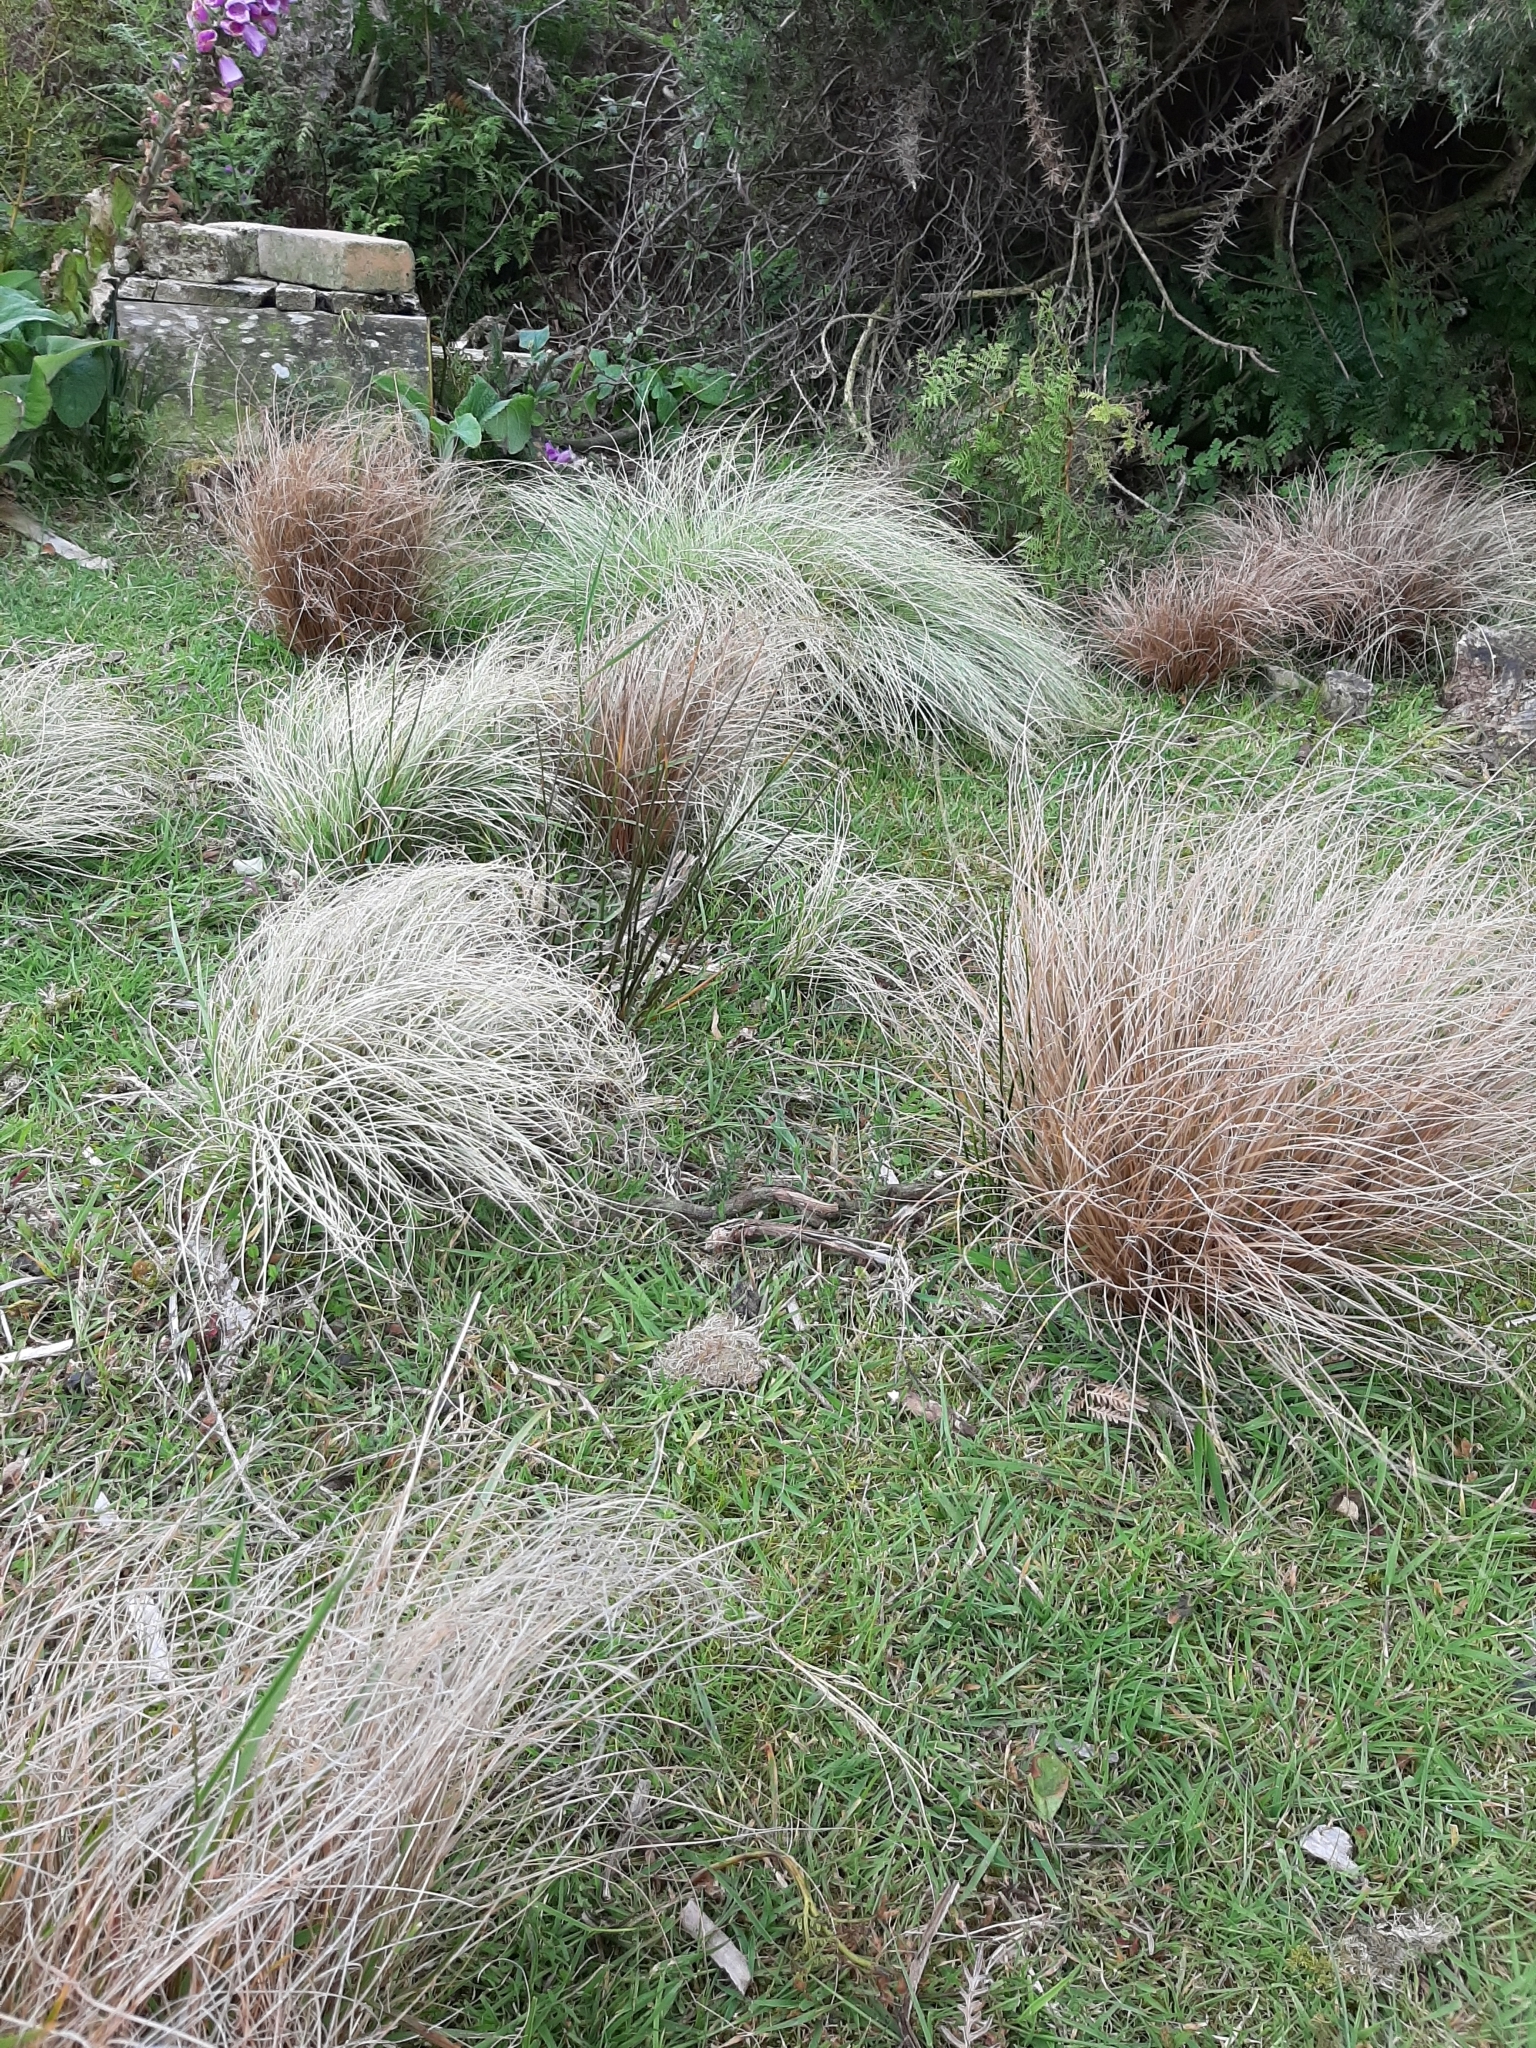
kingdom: Plantae
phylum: Tracheophyta
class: Liliopsida
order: Poales
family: Cyperaceae
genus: Carex
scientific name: Carex comans
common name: Longwood tussock
